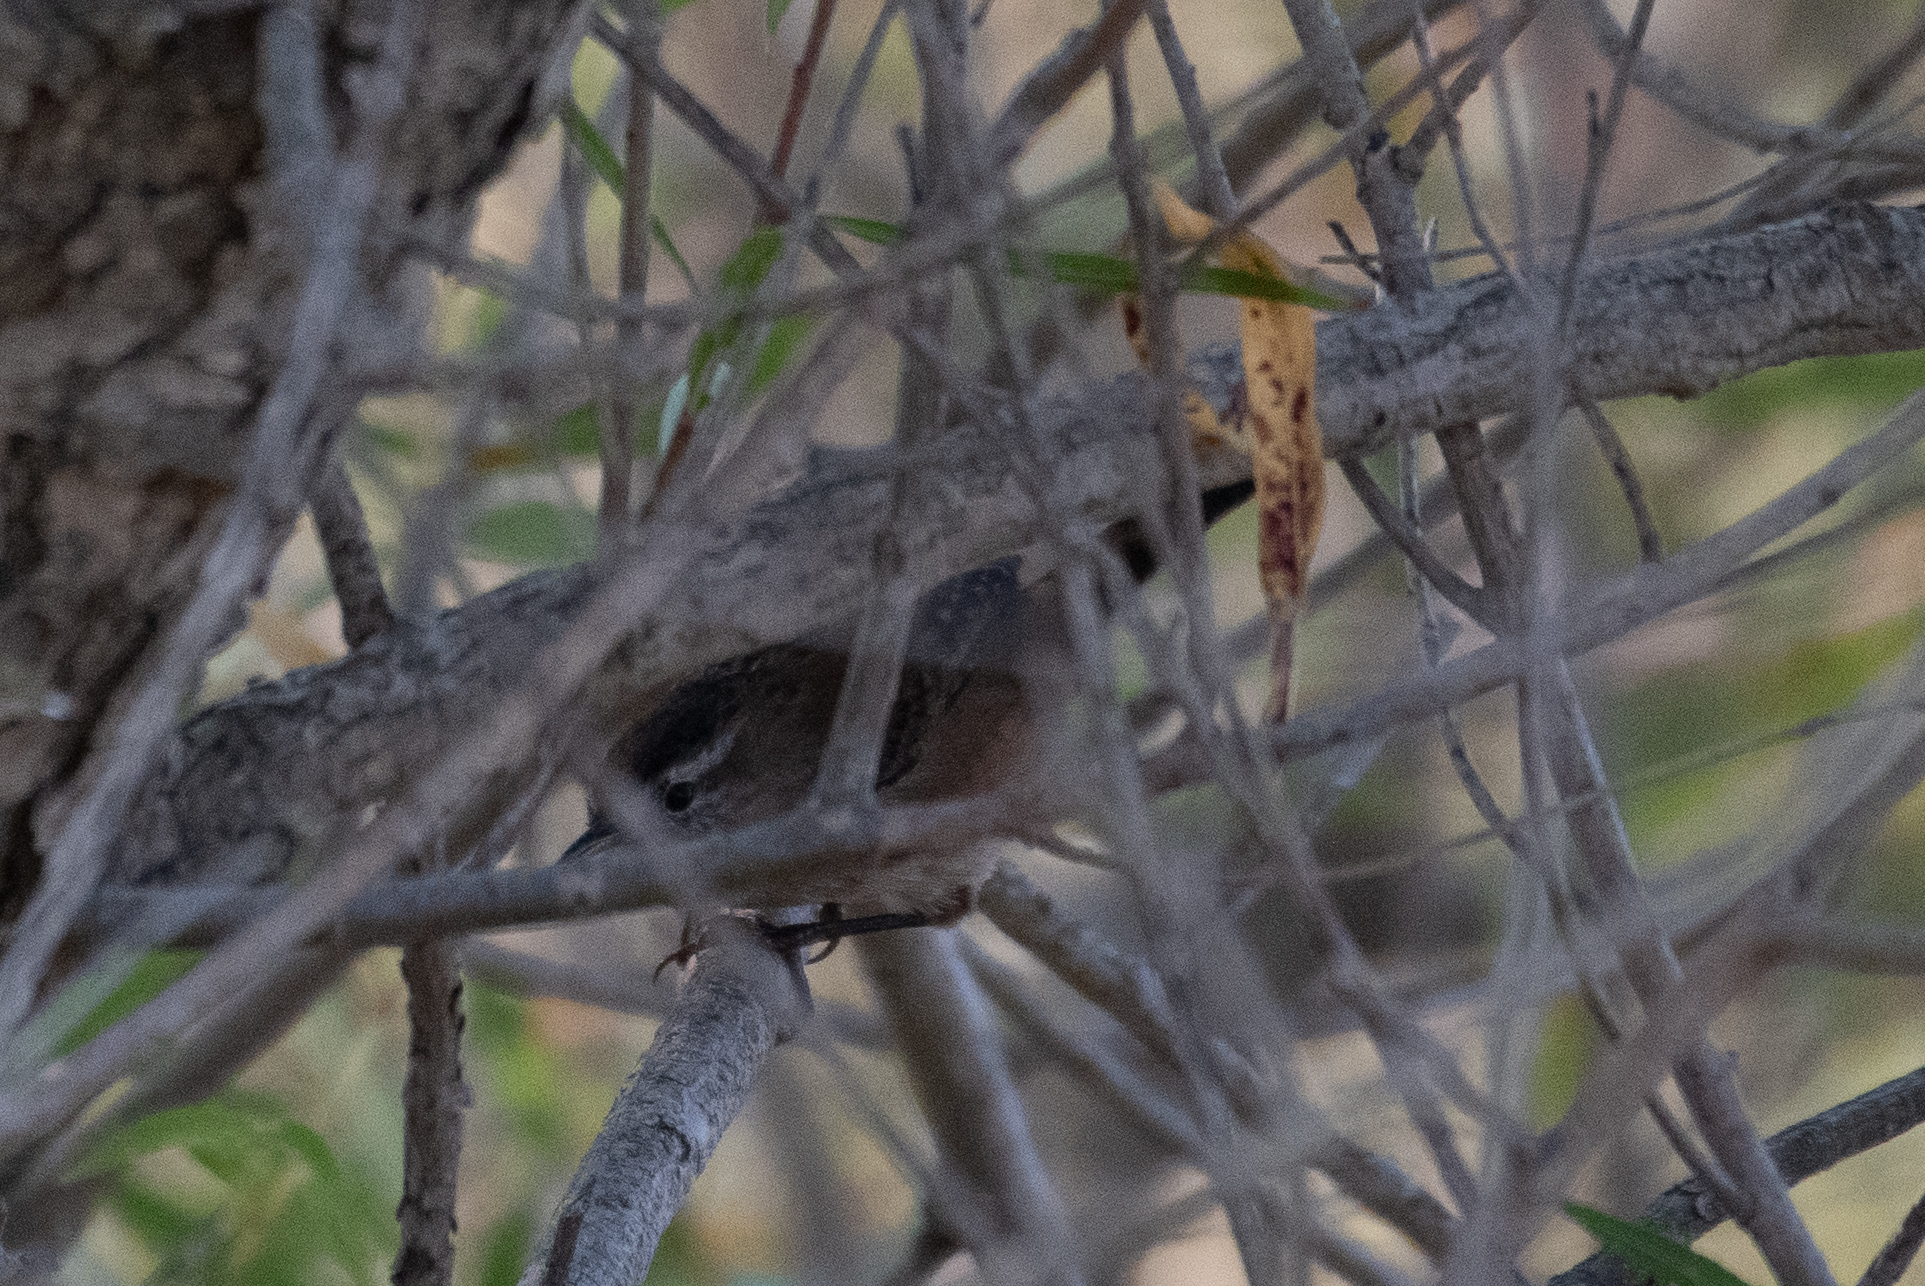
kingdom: Animalia
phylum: Chordata
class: Aves
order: Passeriformes
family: Troglodytidae
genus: Thryomanes
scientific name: Thryomanes bewickii
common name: Bewick's wren
